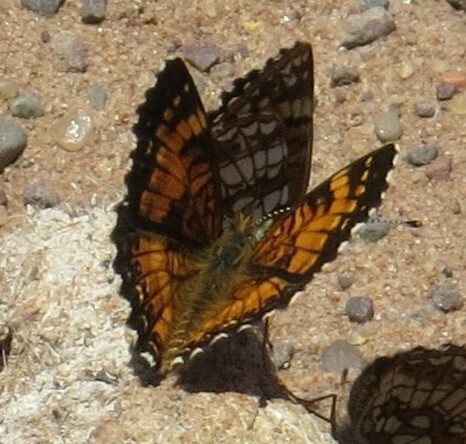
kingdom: Animalia
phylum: Arthropoda
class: Insecta
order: Lepidoptera
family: Nymphalidae
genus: Chlosyne
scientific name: Chlosyne harrisii
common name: Harris's checkerspot
